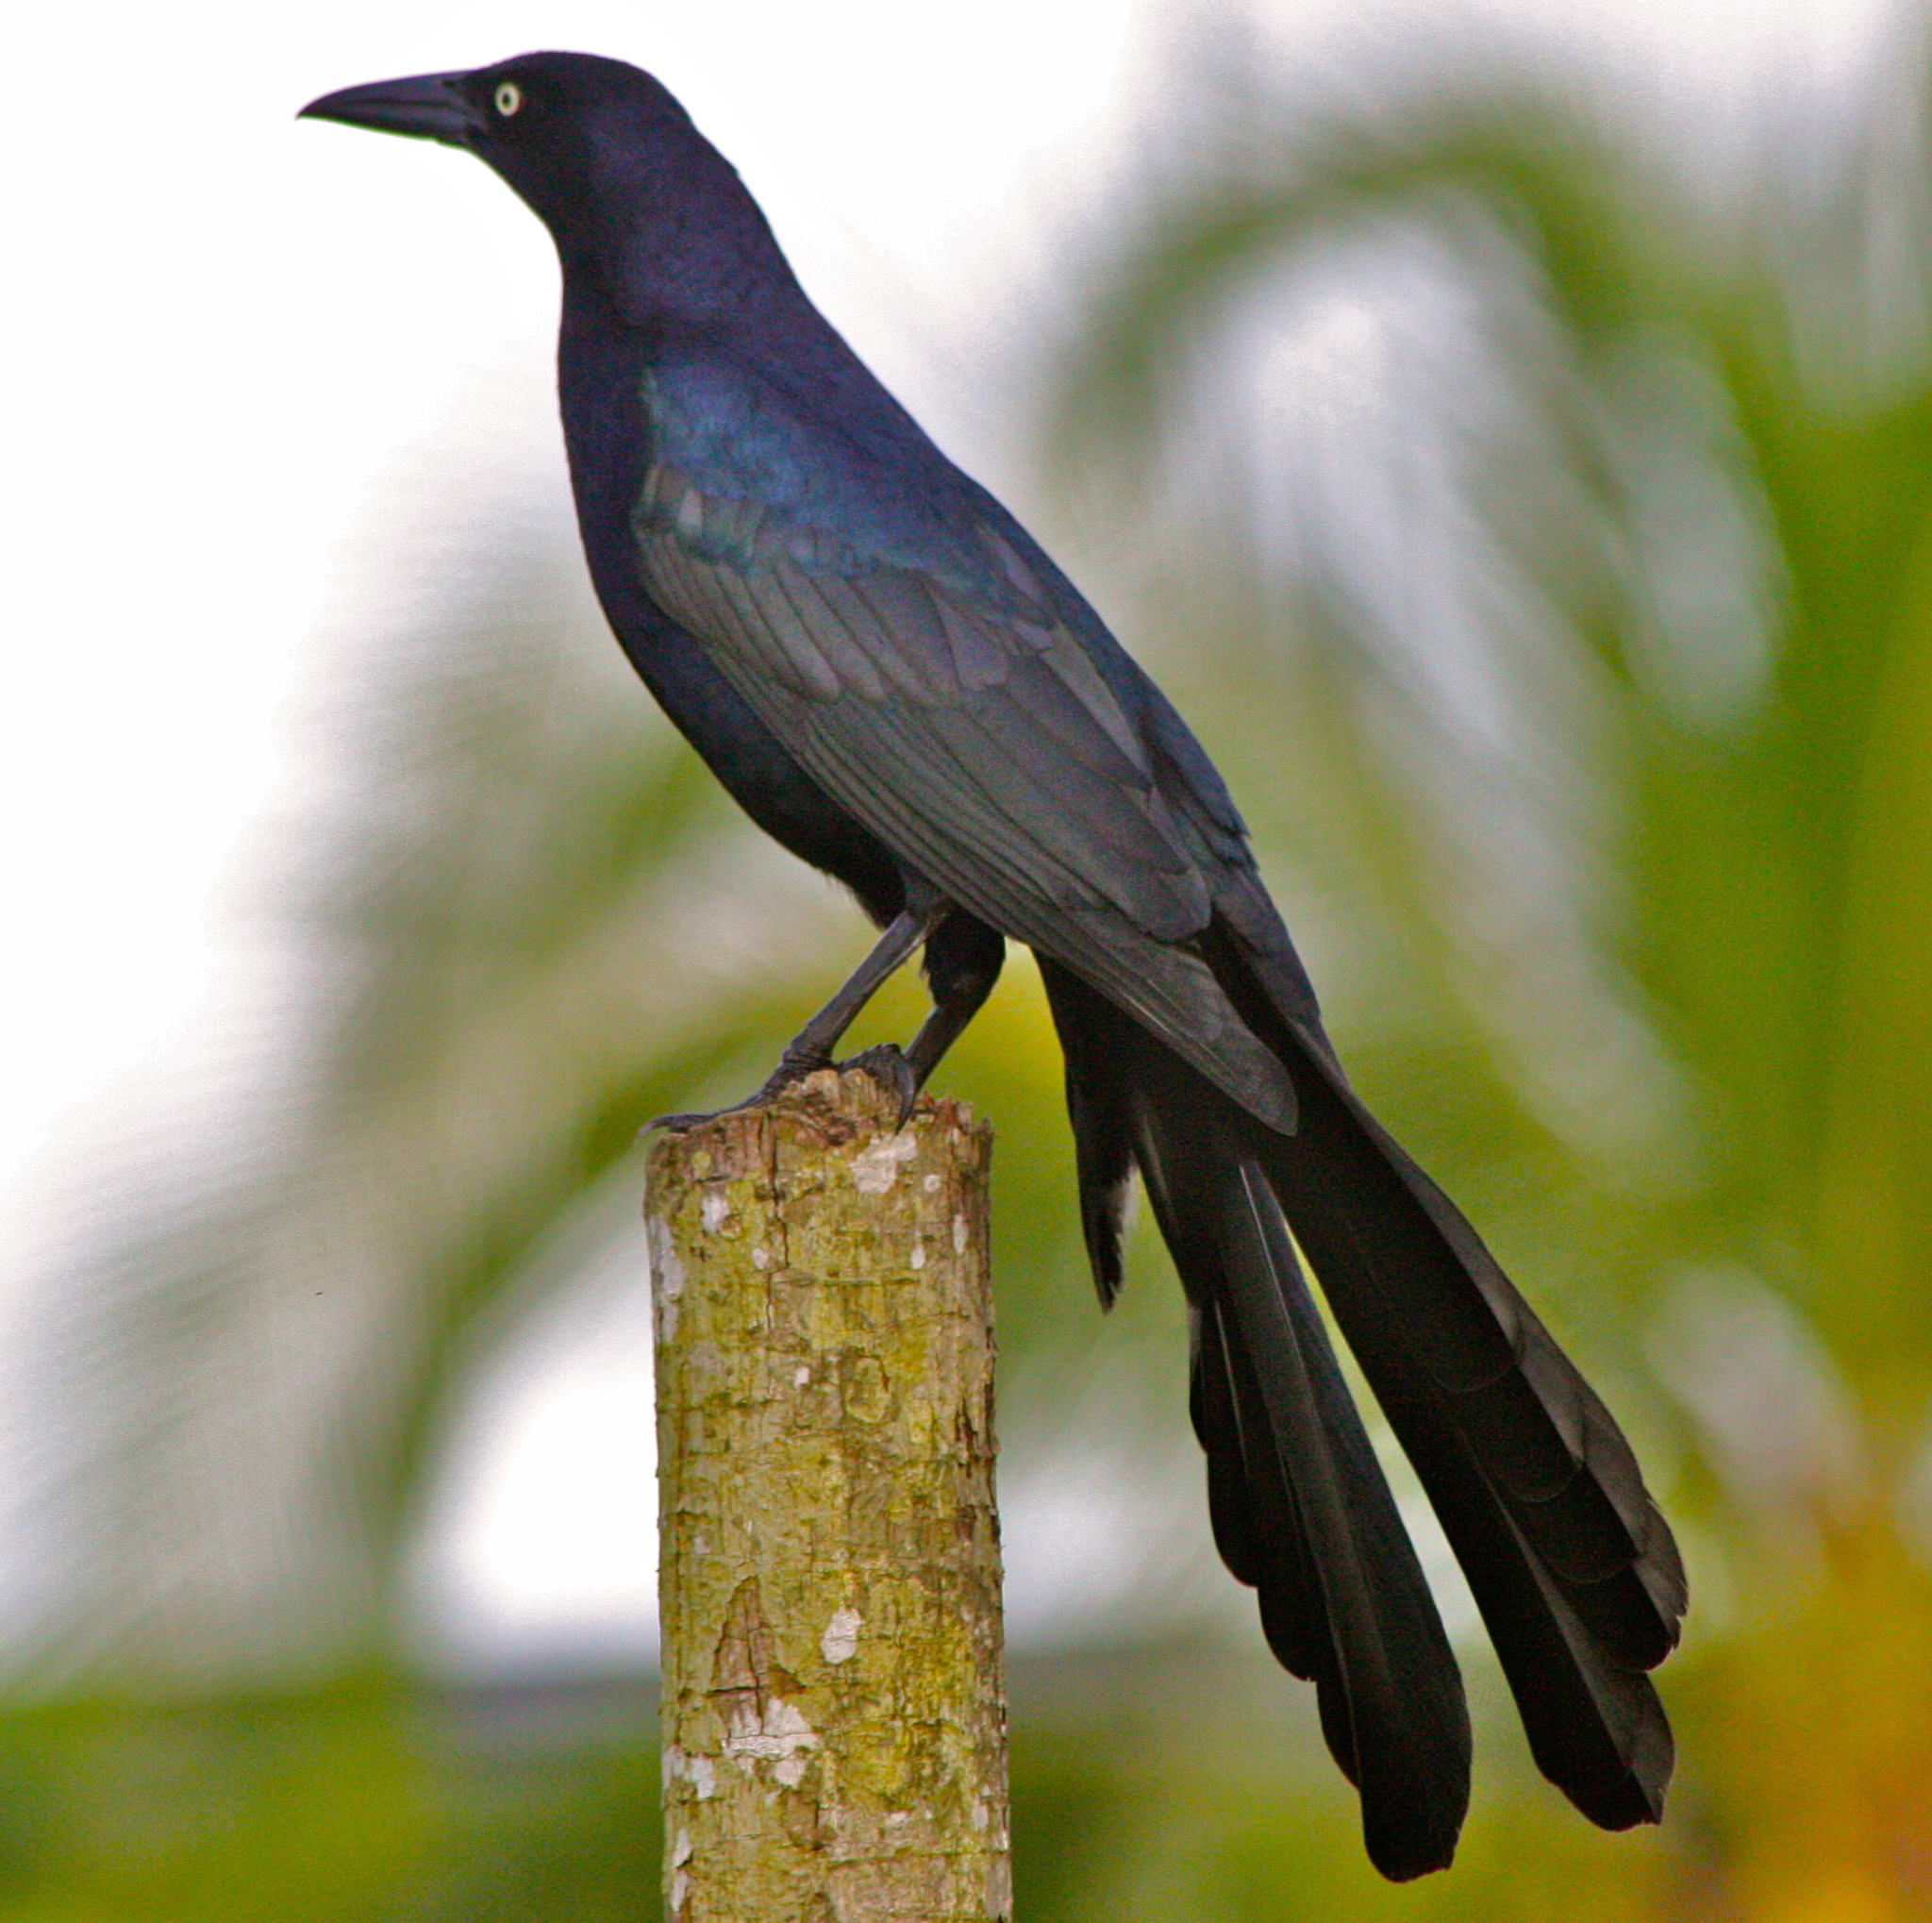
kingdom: Animalia
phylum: Chordata
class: Aves
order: Passeriformes
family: Icteridae
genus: Quiscalus
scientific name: Quiscalus mexicanus
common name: Great-tailed grackle
